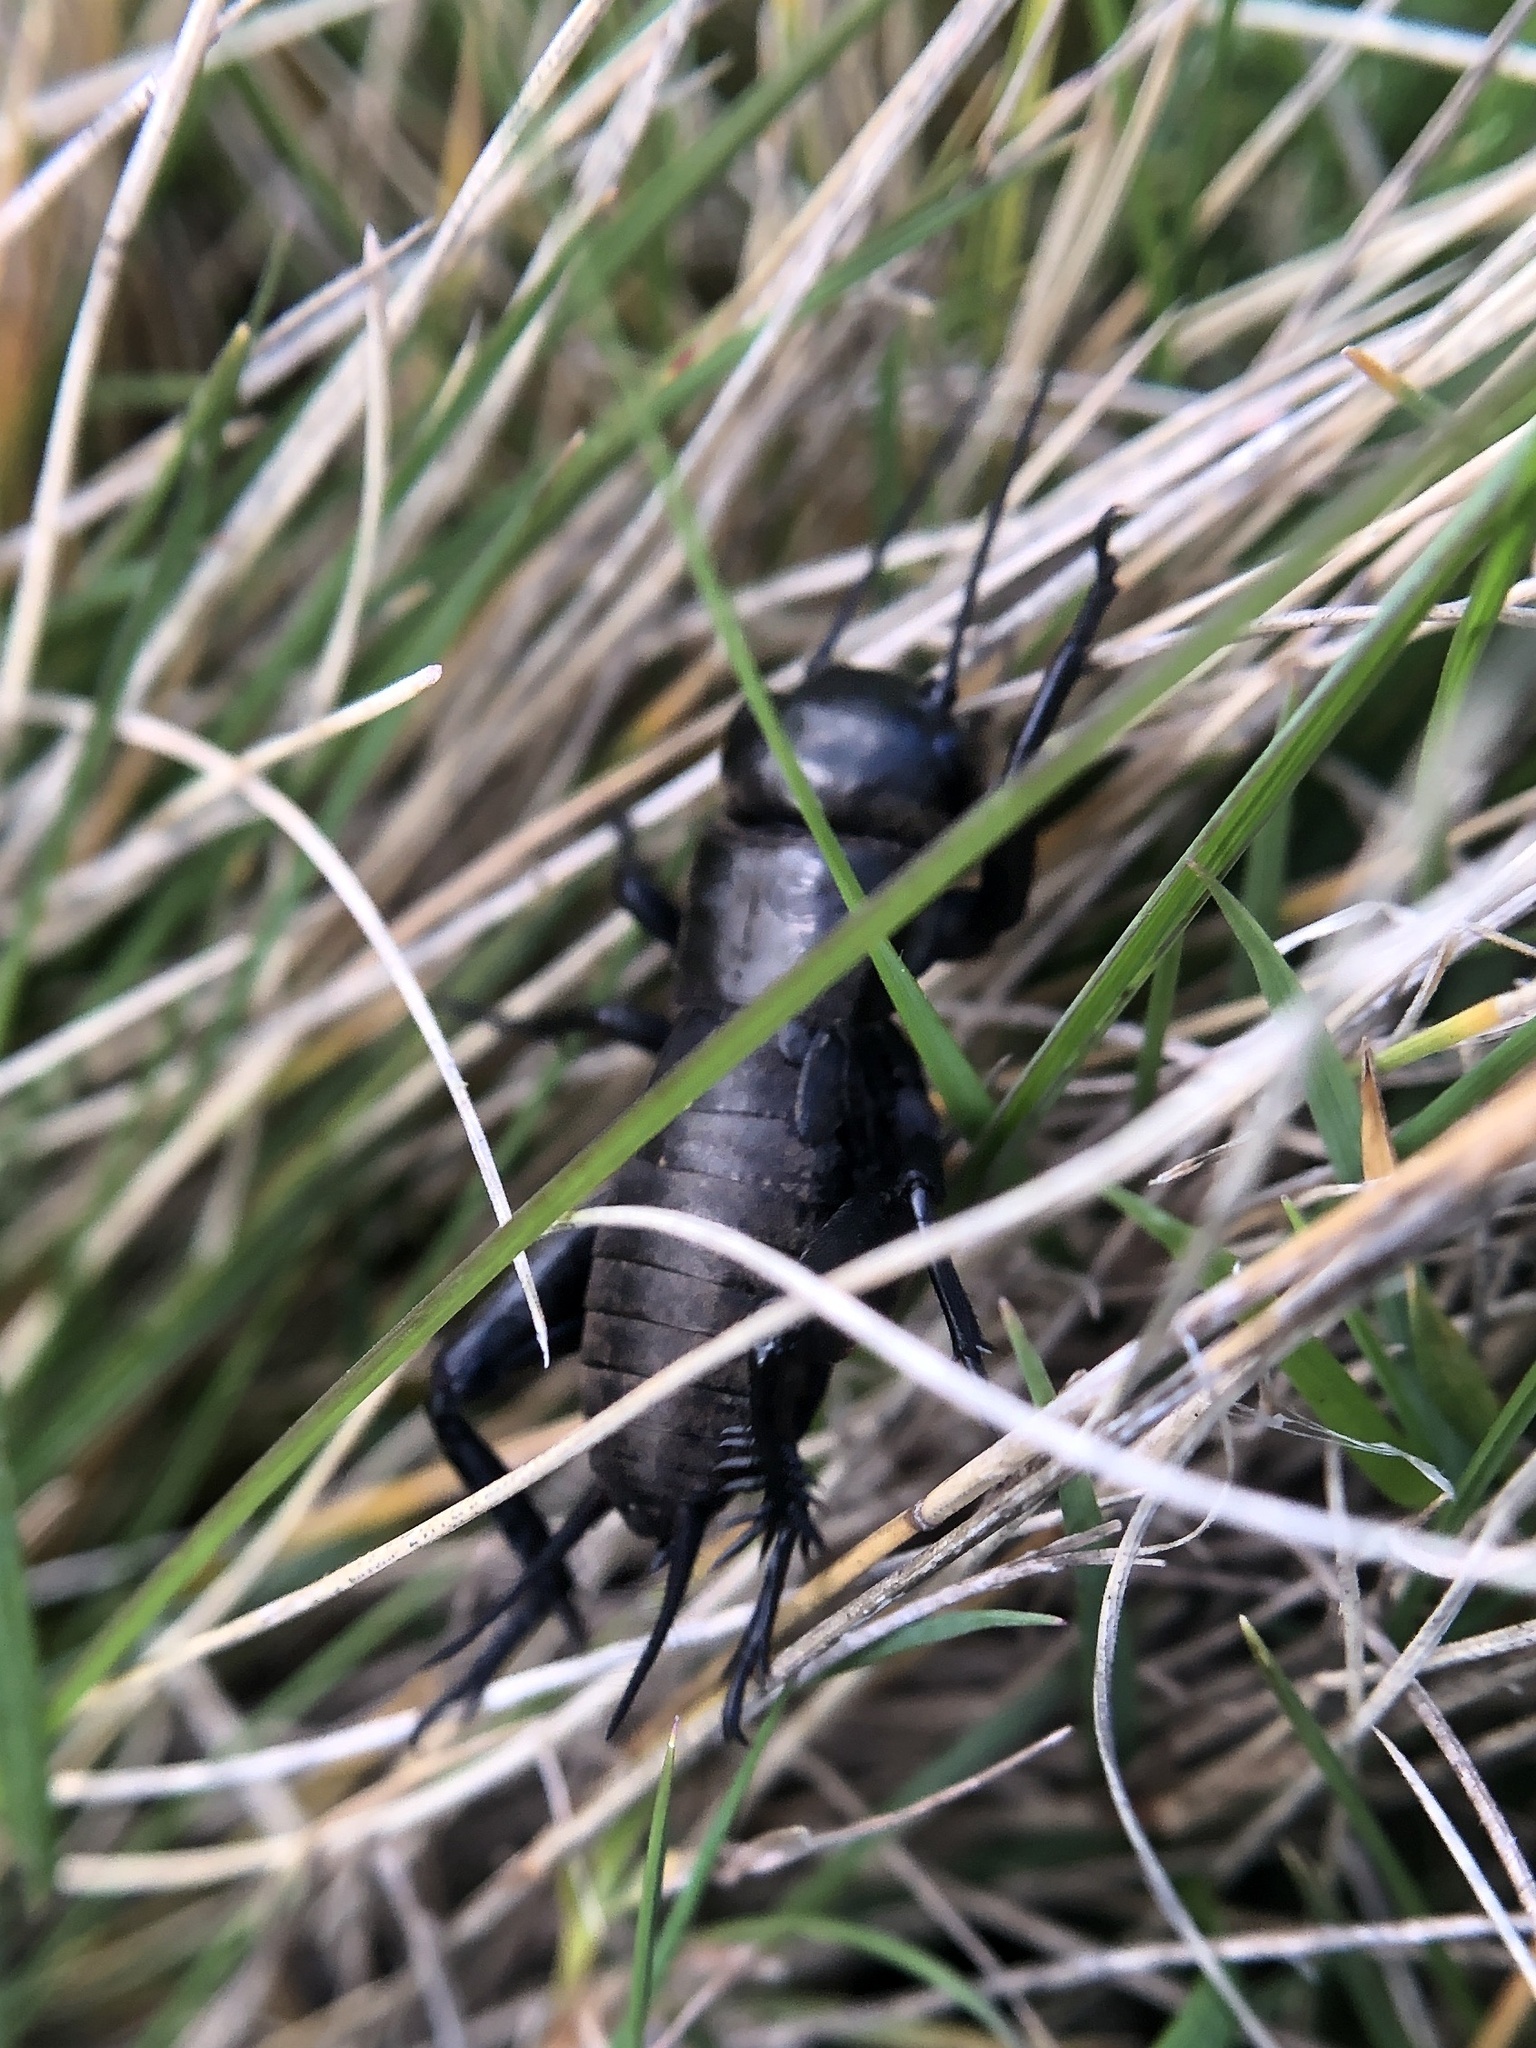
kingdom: Animalia
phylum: Arthropoda
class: Insecta
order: Orthoptera
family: Gryllidae
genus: Gryllus
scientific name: Gryllus campestris
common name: Field cricket
